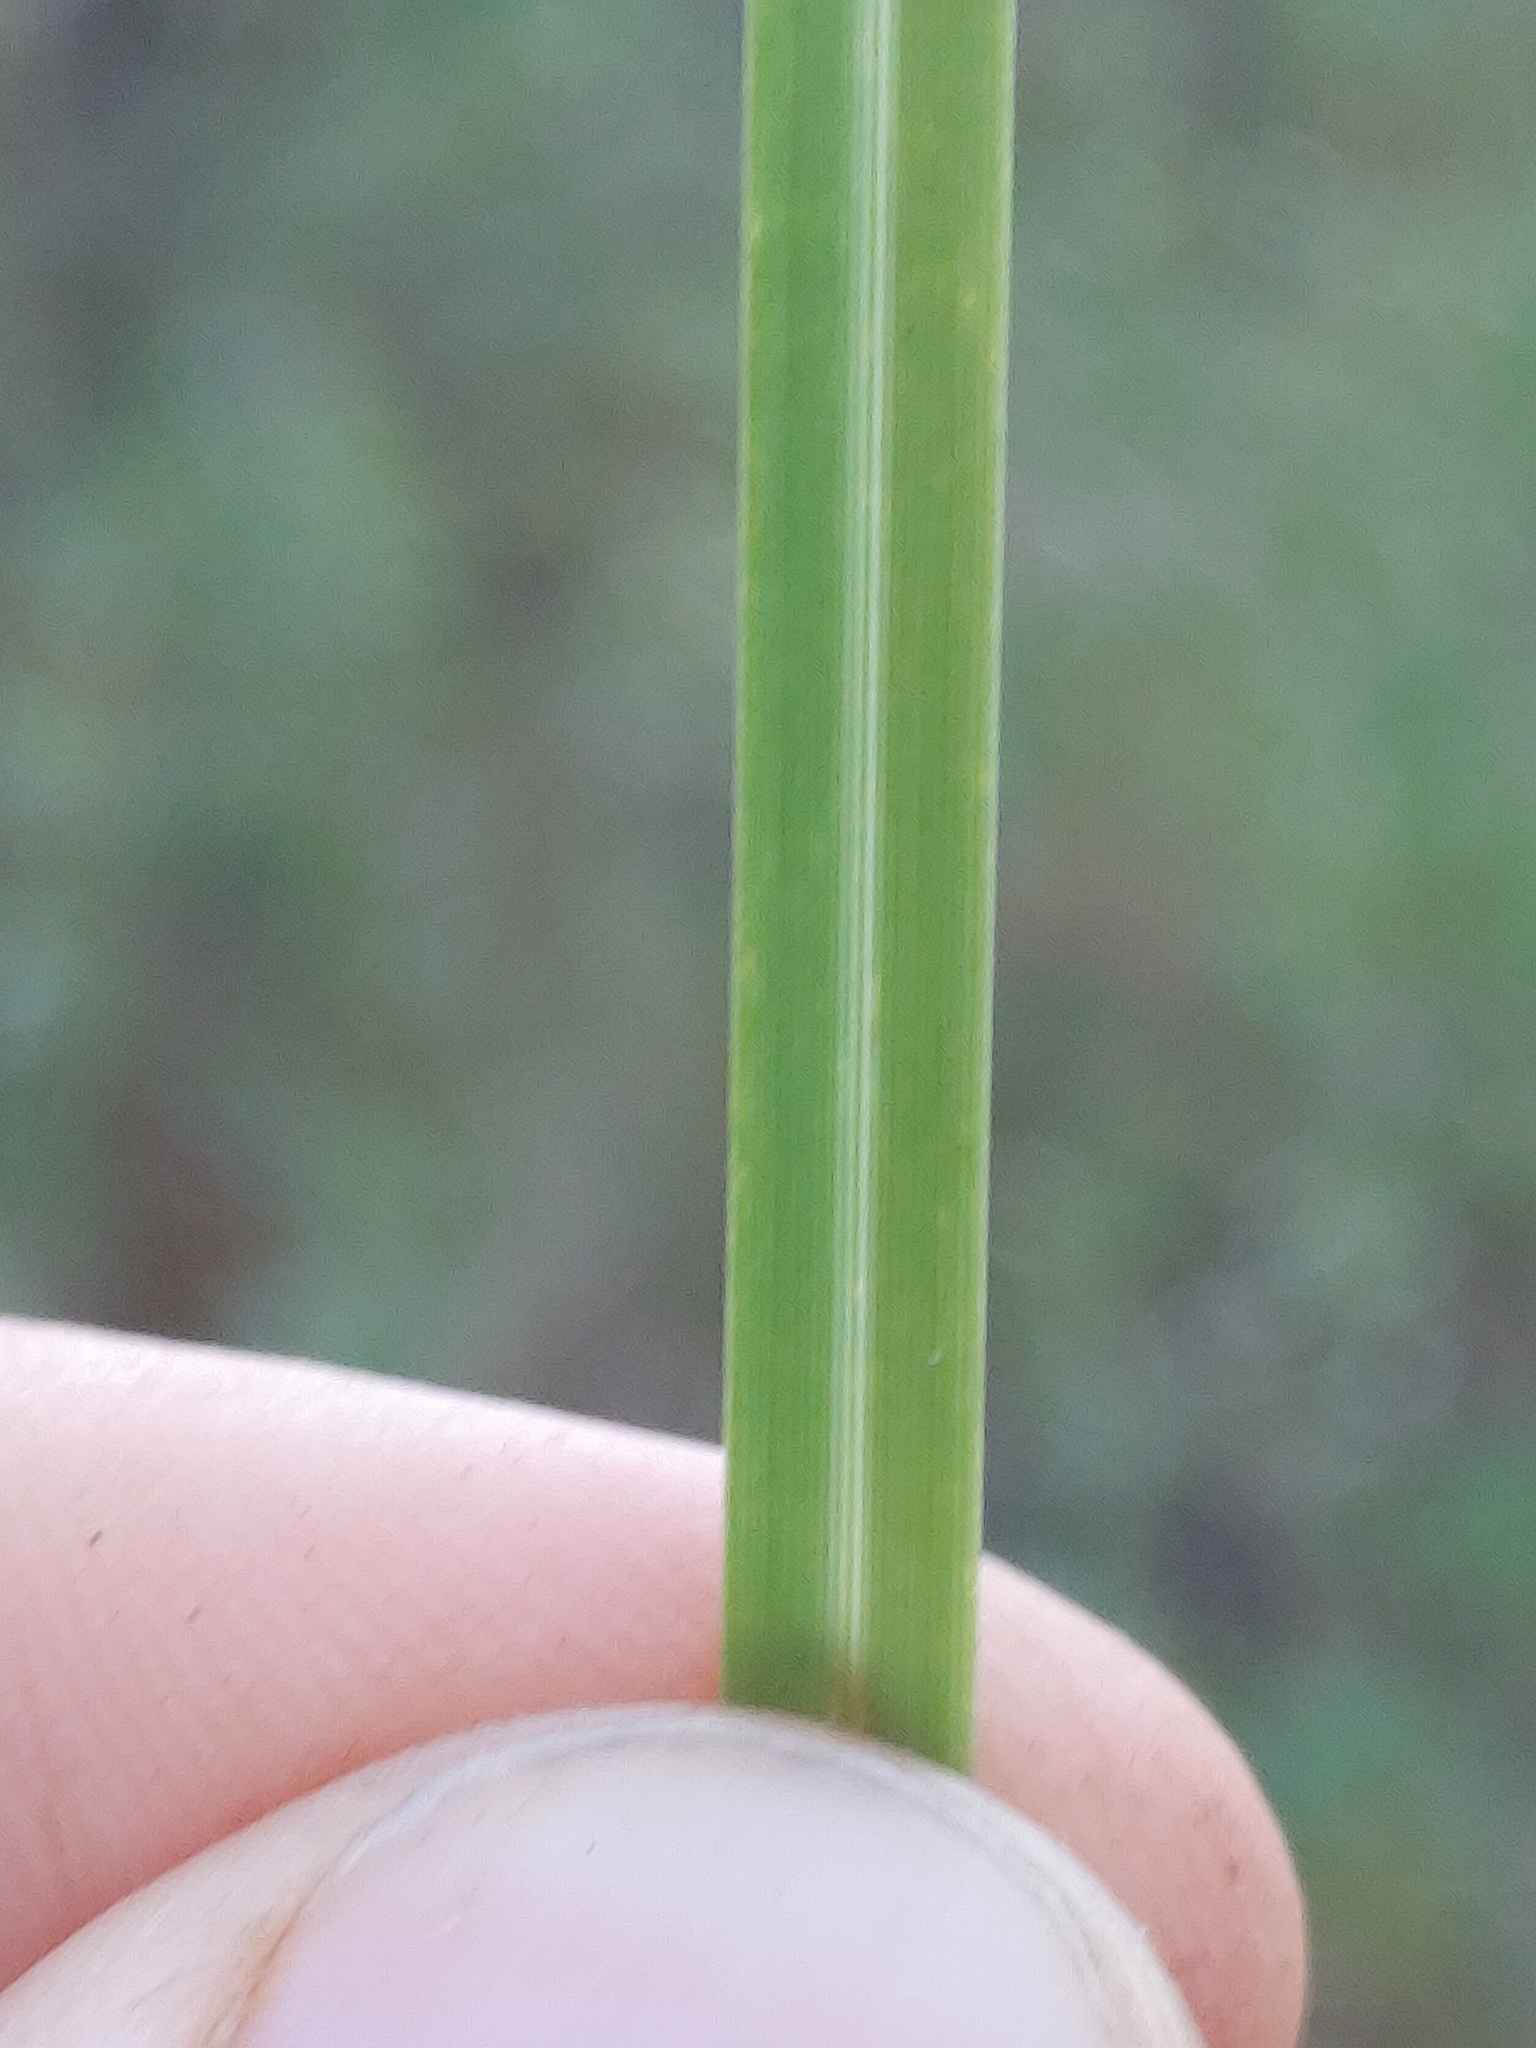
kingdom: Plantae
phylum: Tracheophyta
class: Liliopsida
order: Poales
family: Poaceae
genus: Sporobolus
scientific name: Sporobolus floridanus
